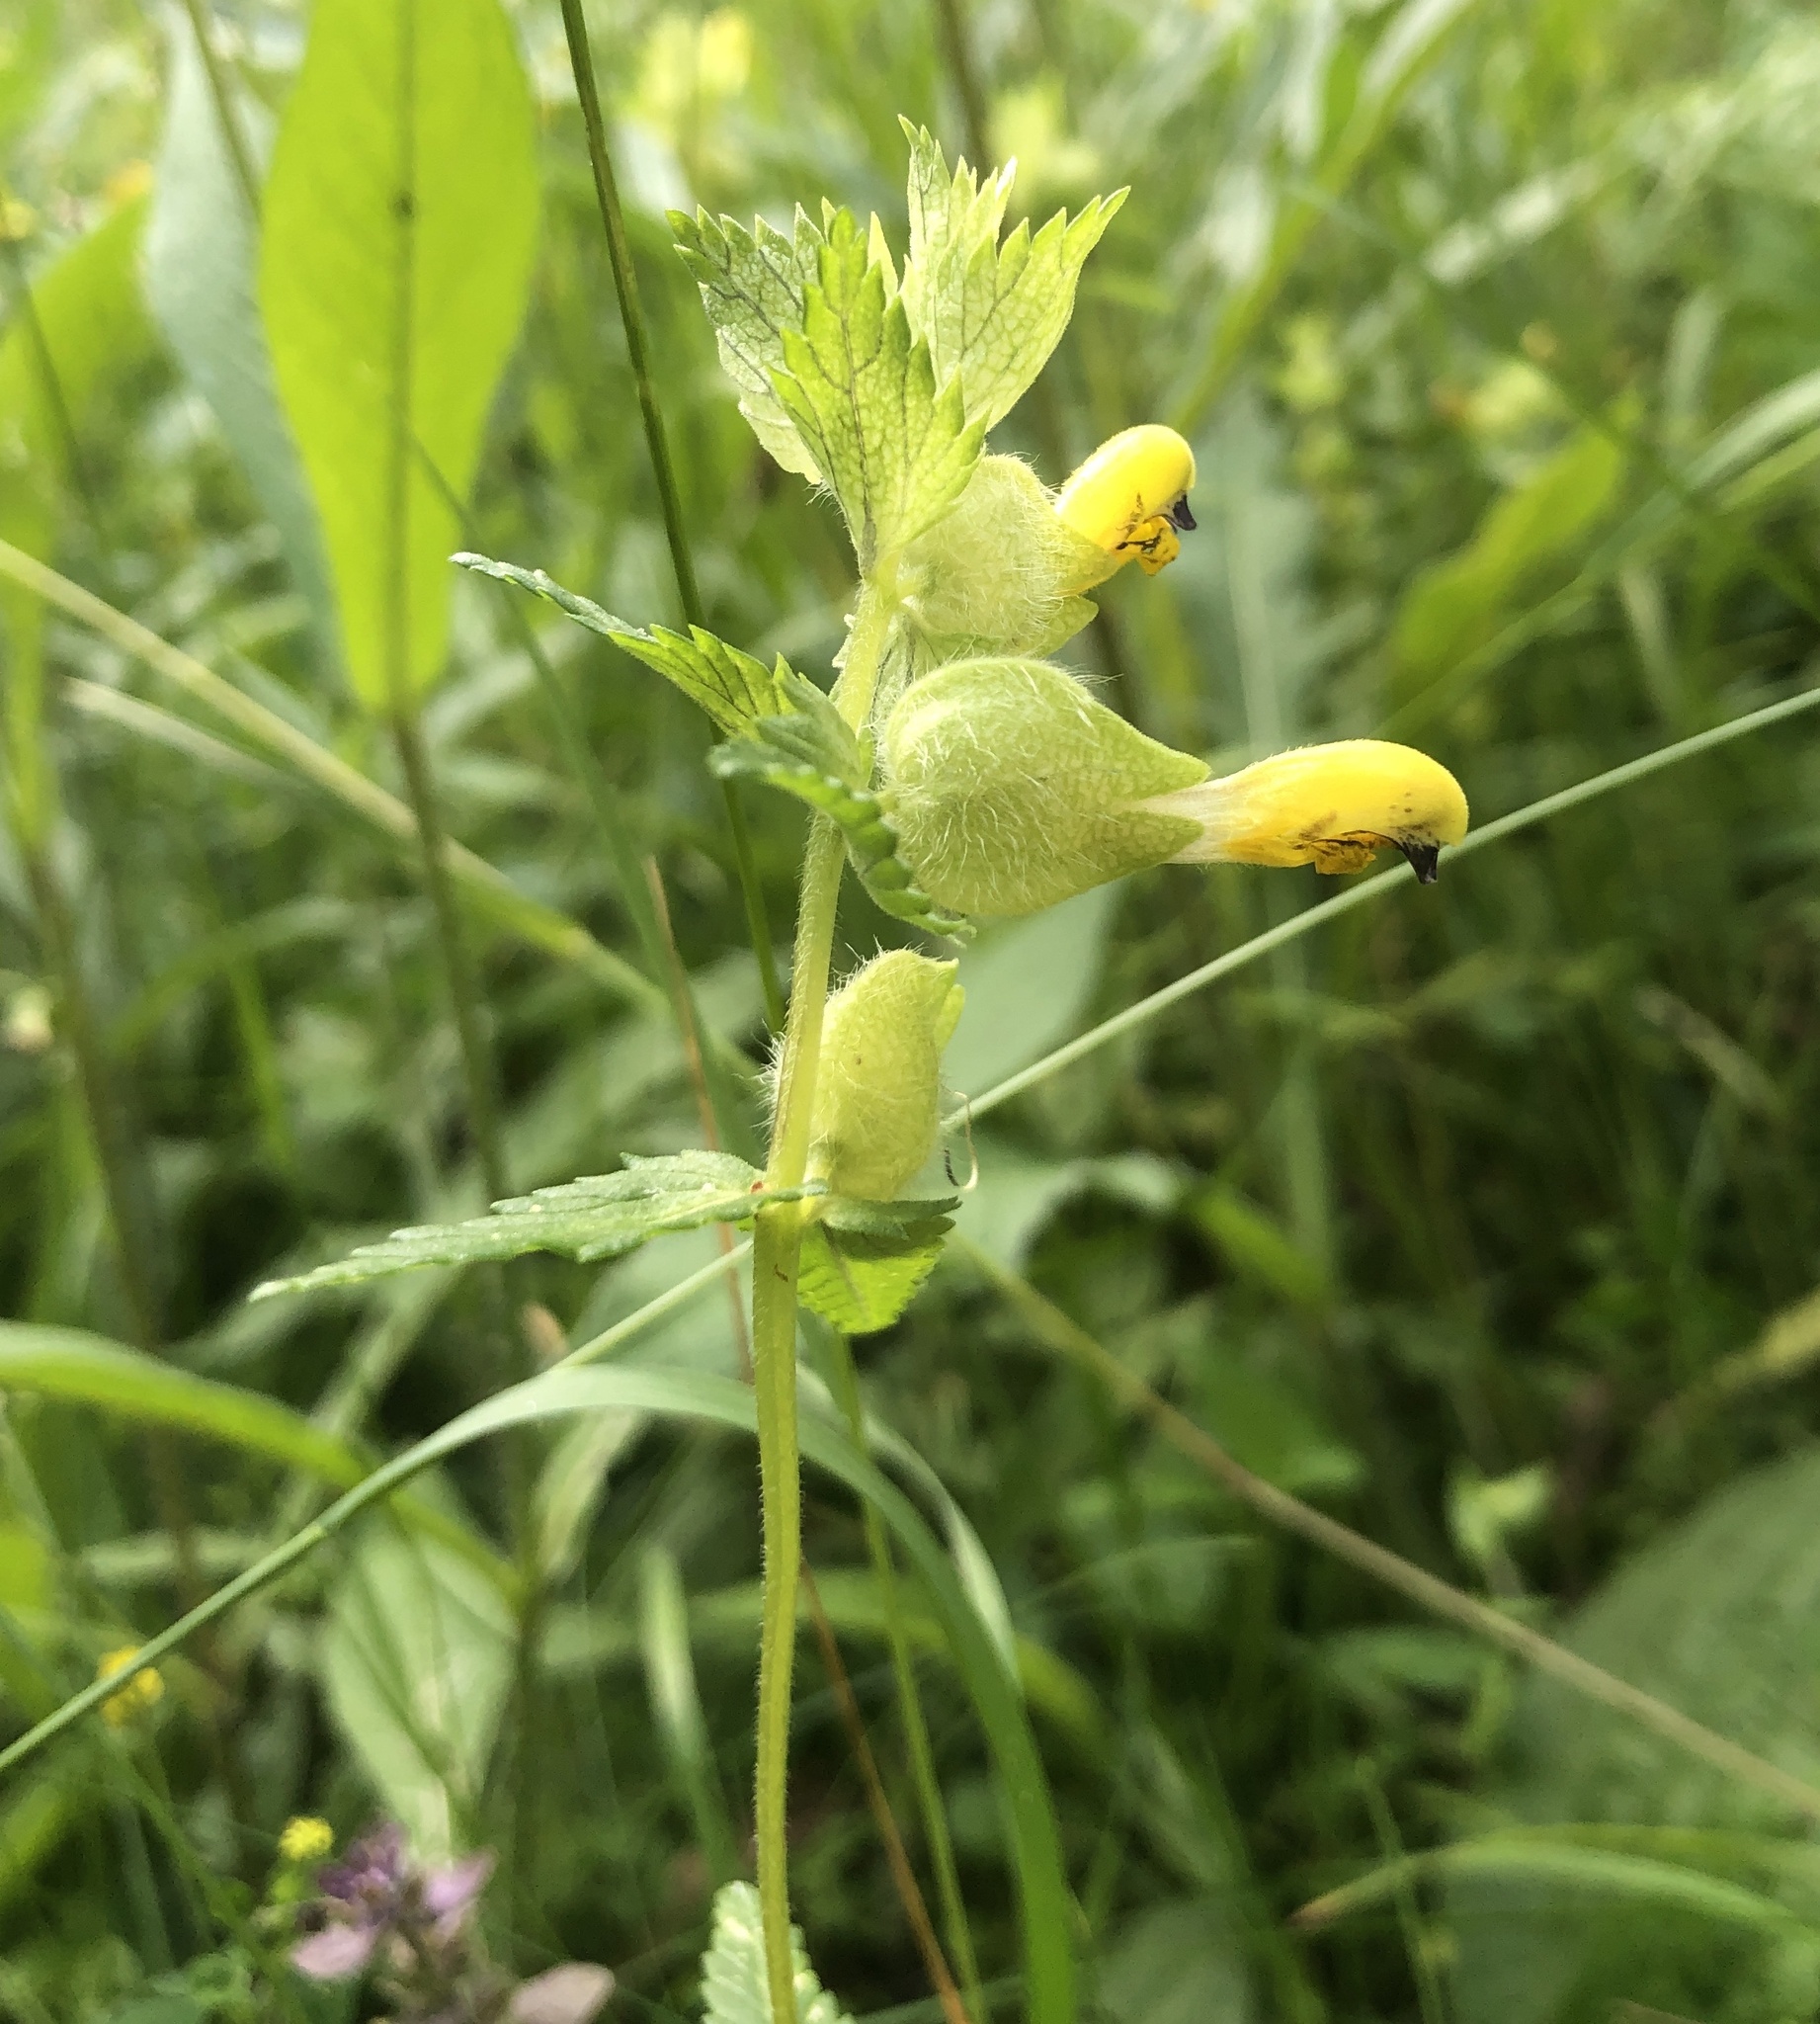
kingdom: Plantae
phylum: Tracheophyta
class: Magnoliopsida
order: Lamiales
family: Orobanchaceae
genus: Rhinanthus
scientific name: Rhinanthus alectorolophus
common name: Greater yellow-rattle
